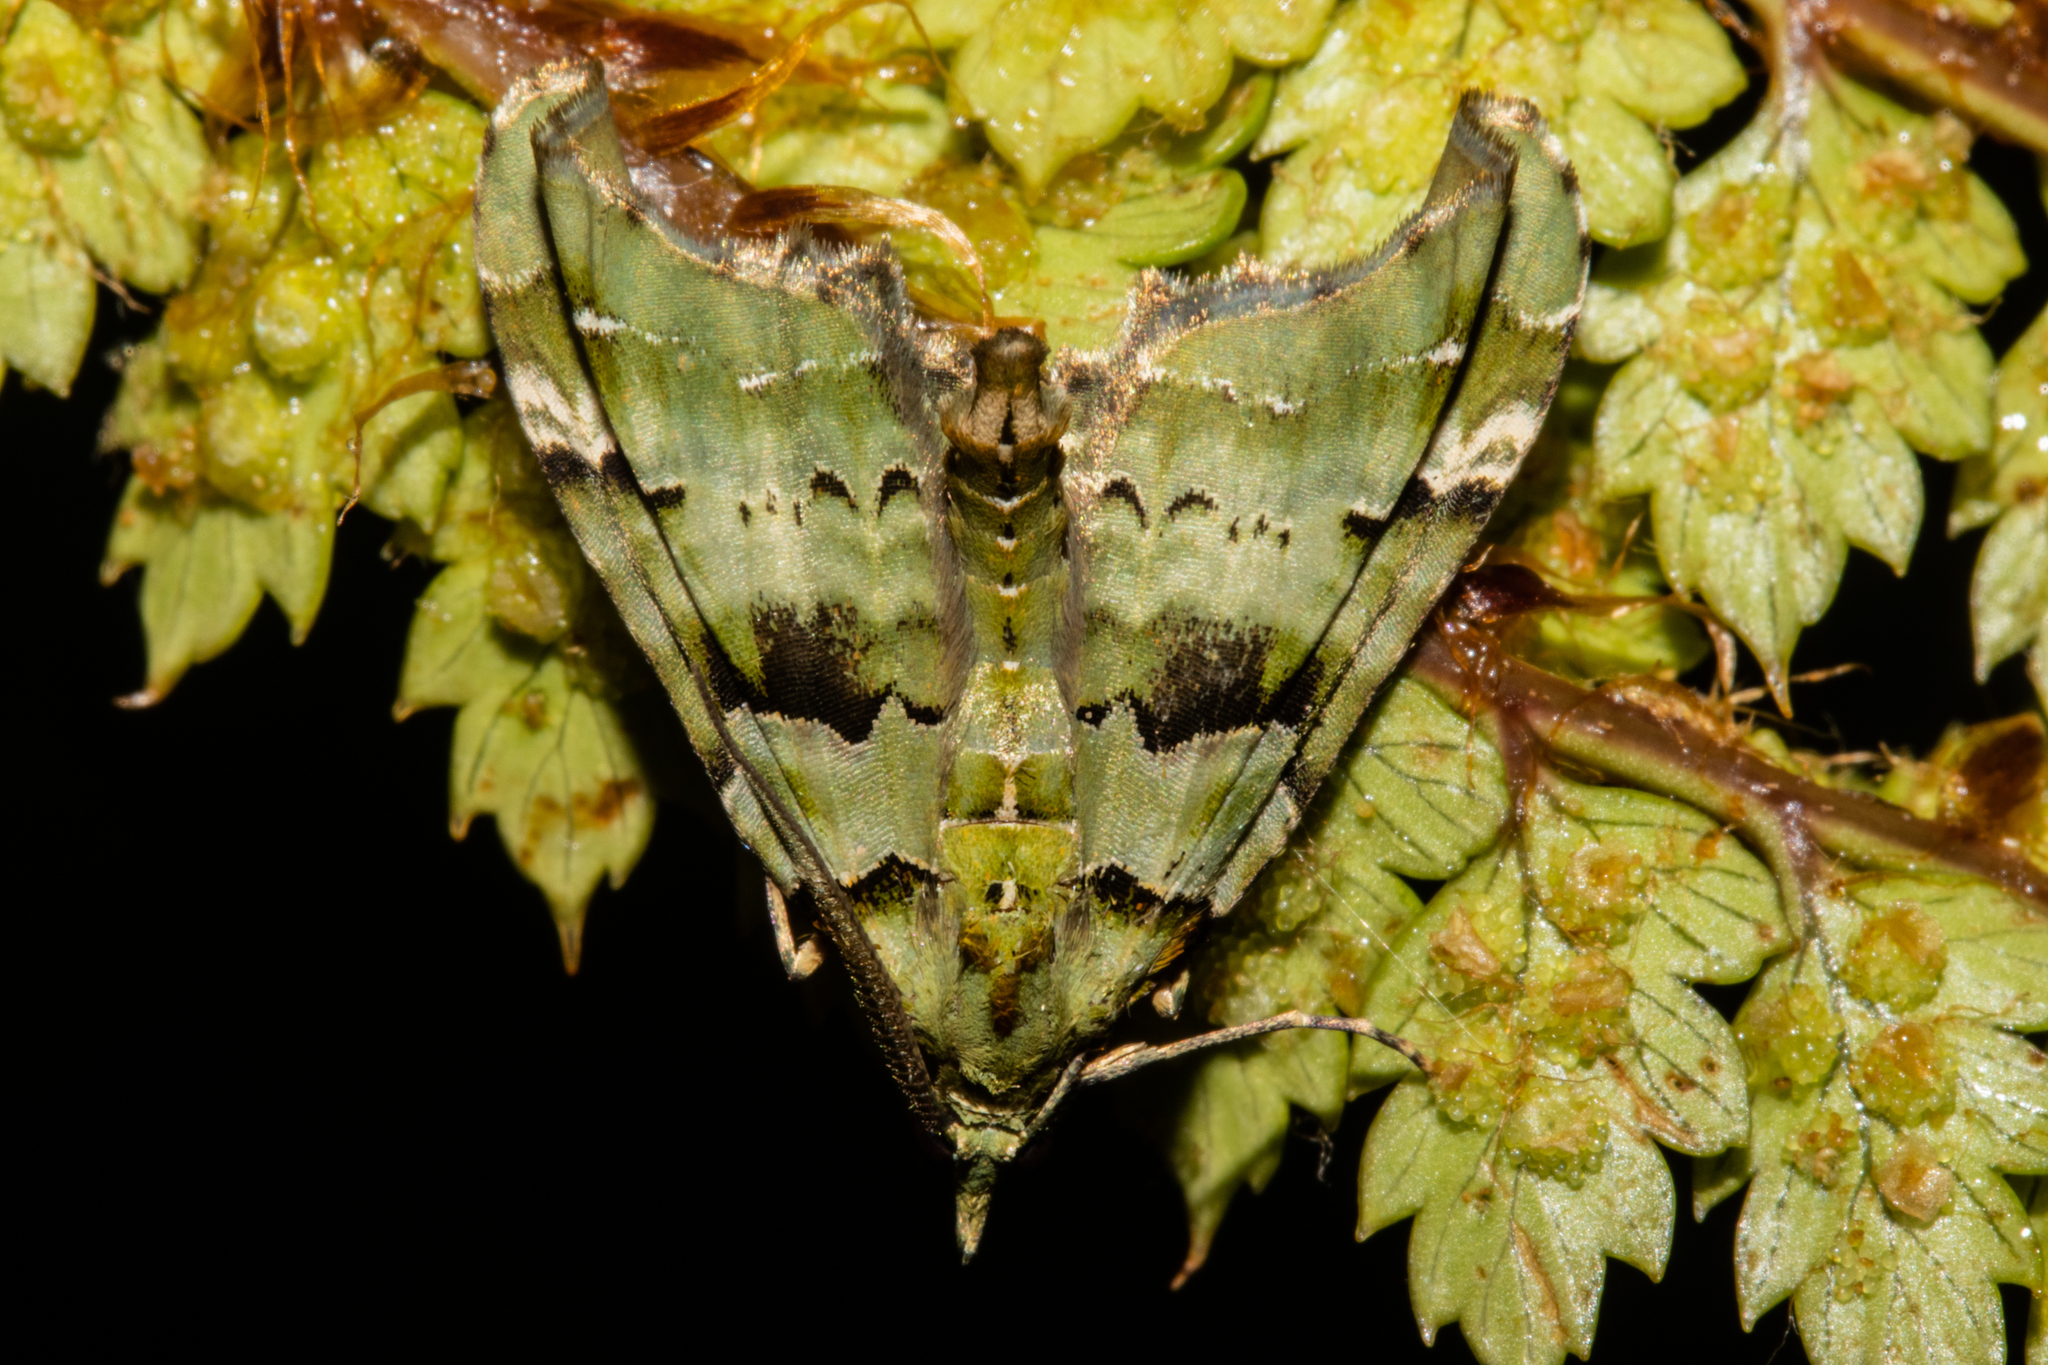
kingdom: Animalia
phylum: Arthropoda
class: Insecta
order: Lepidoptera
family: Geometridae
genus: Elvia
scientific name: Elvia glaucata
